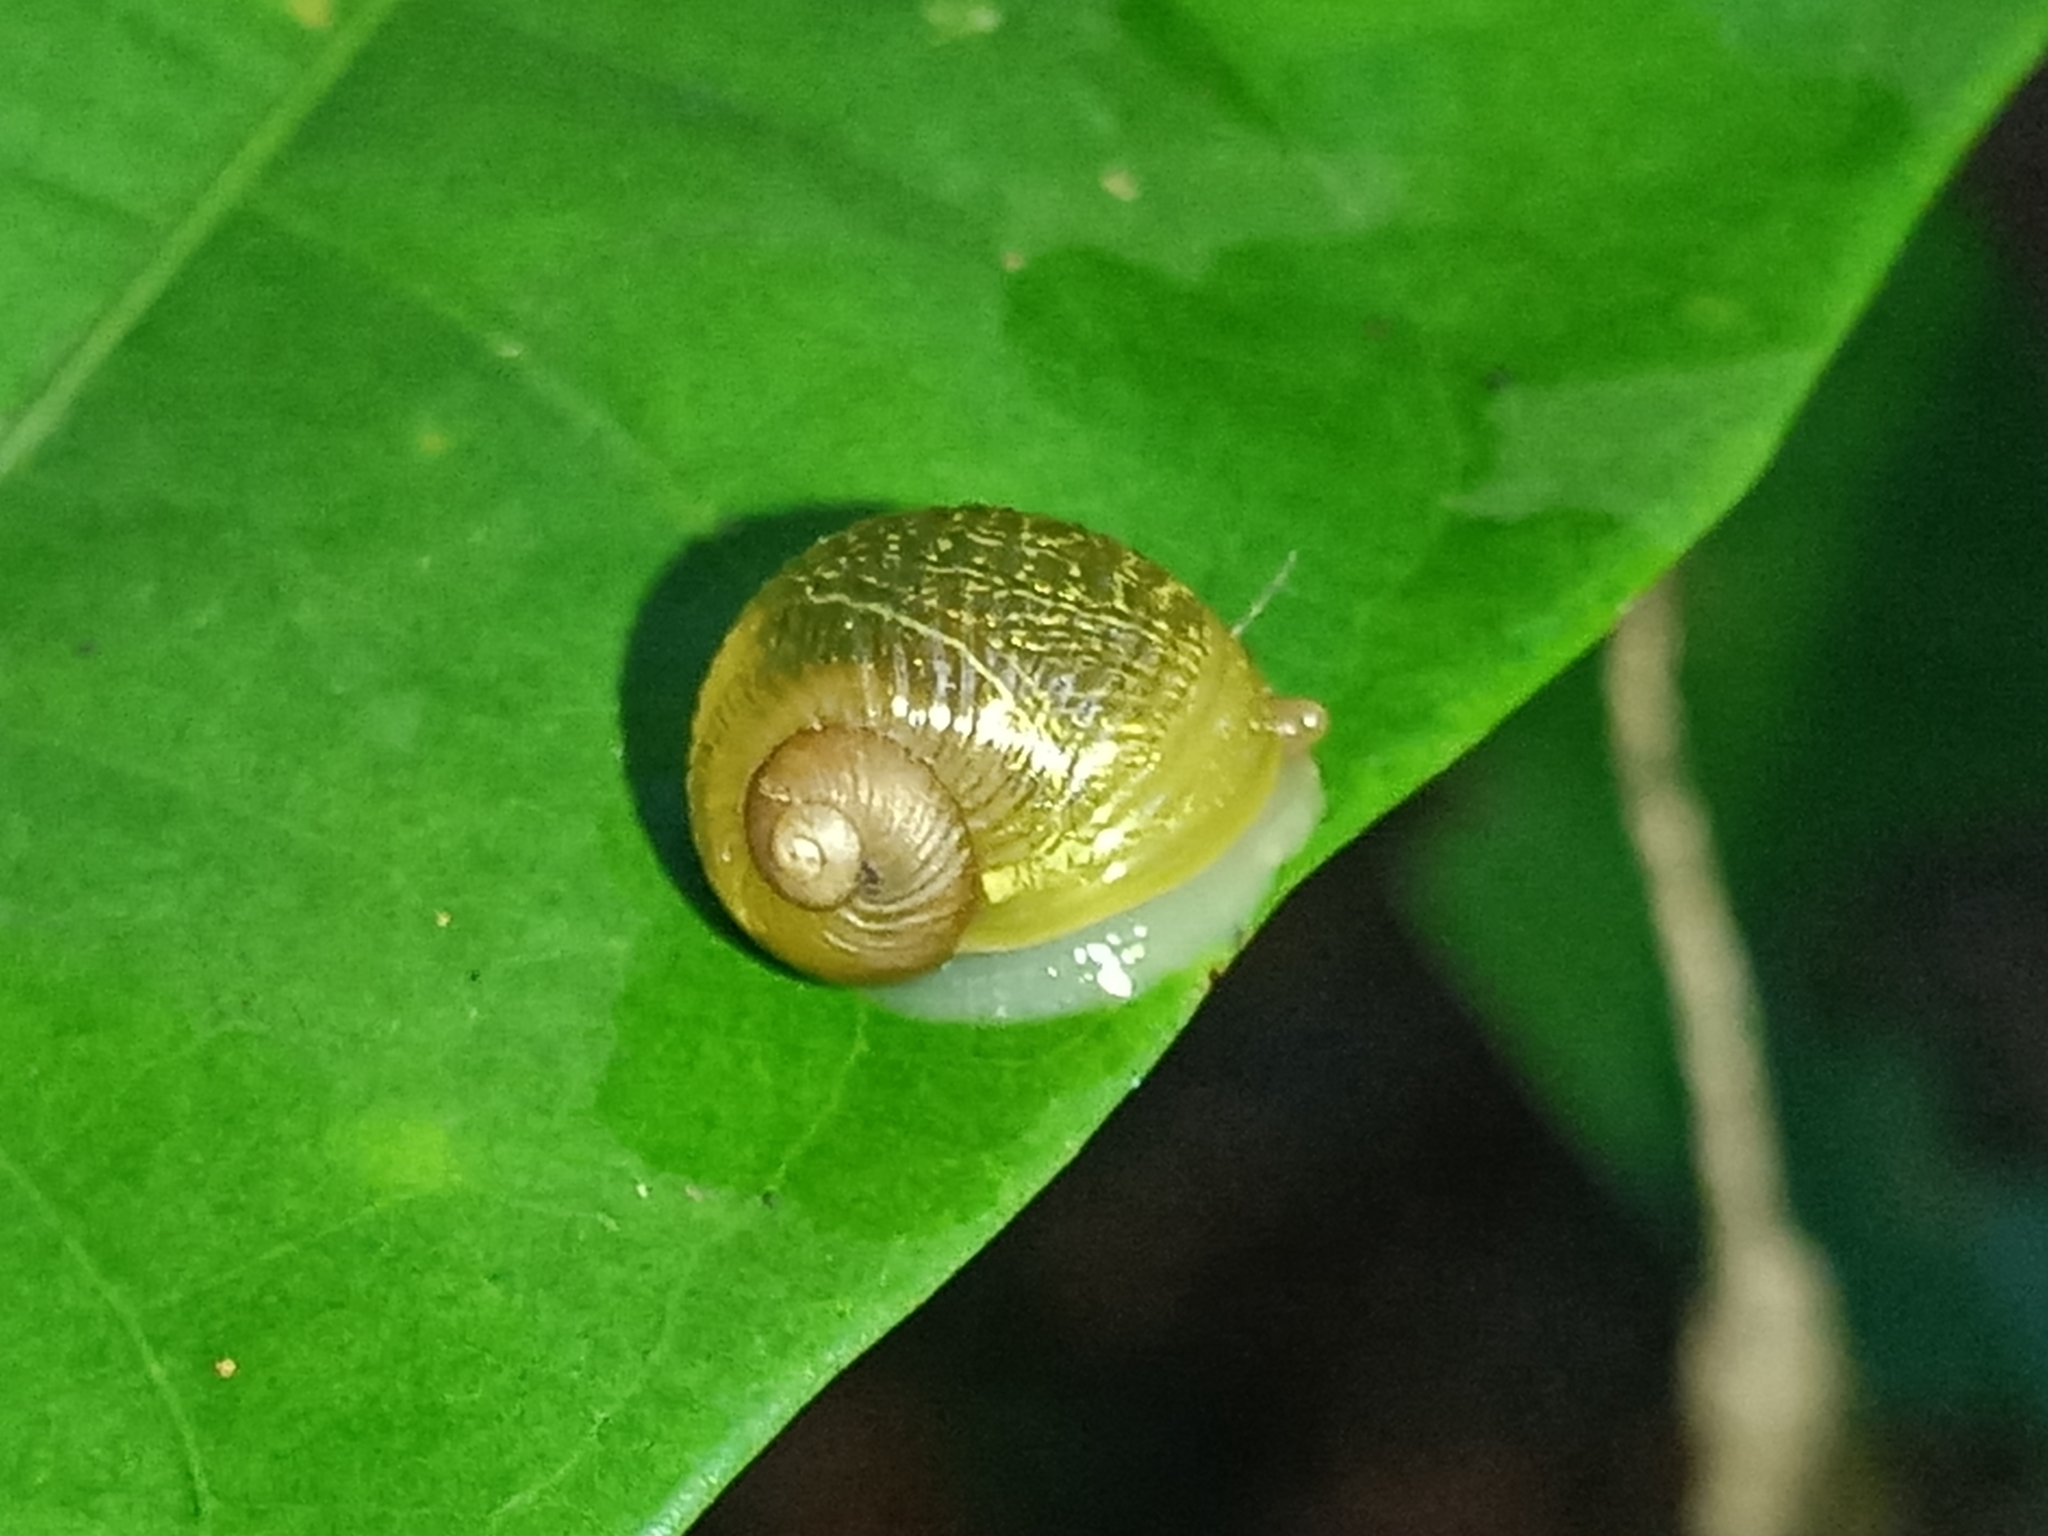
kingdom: Animalia
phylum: Mollusca
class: Gastropoda
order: Stylommatophora
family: Simpulopsidae
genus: Simpulopsis
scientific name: Simpulopsis corrugata
